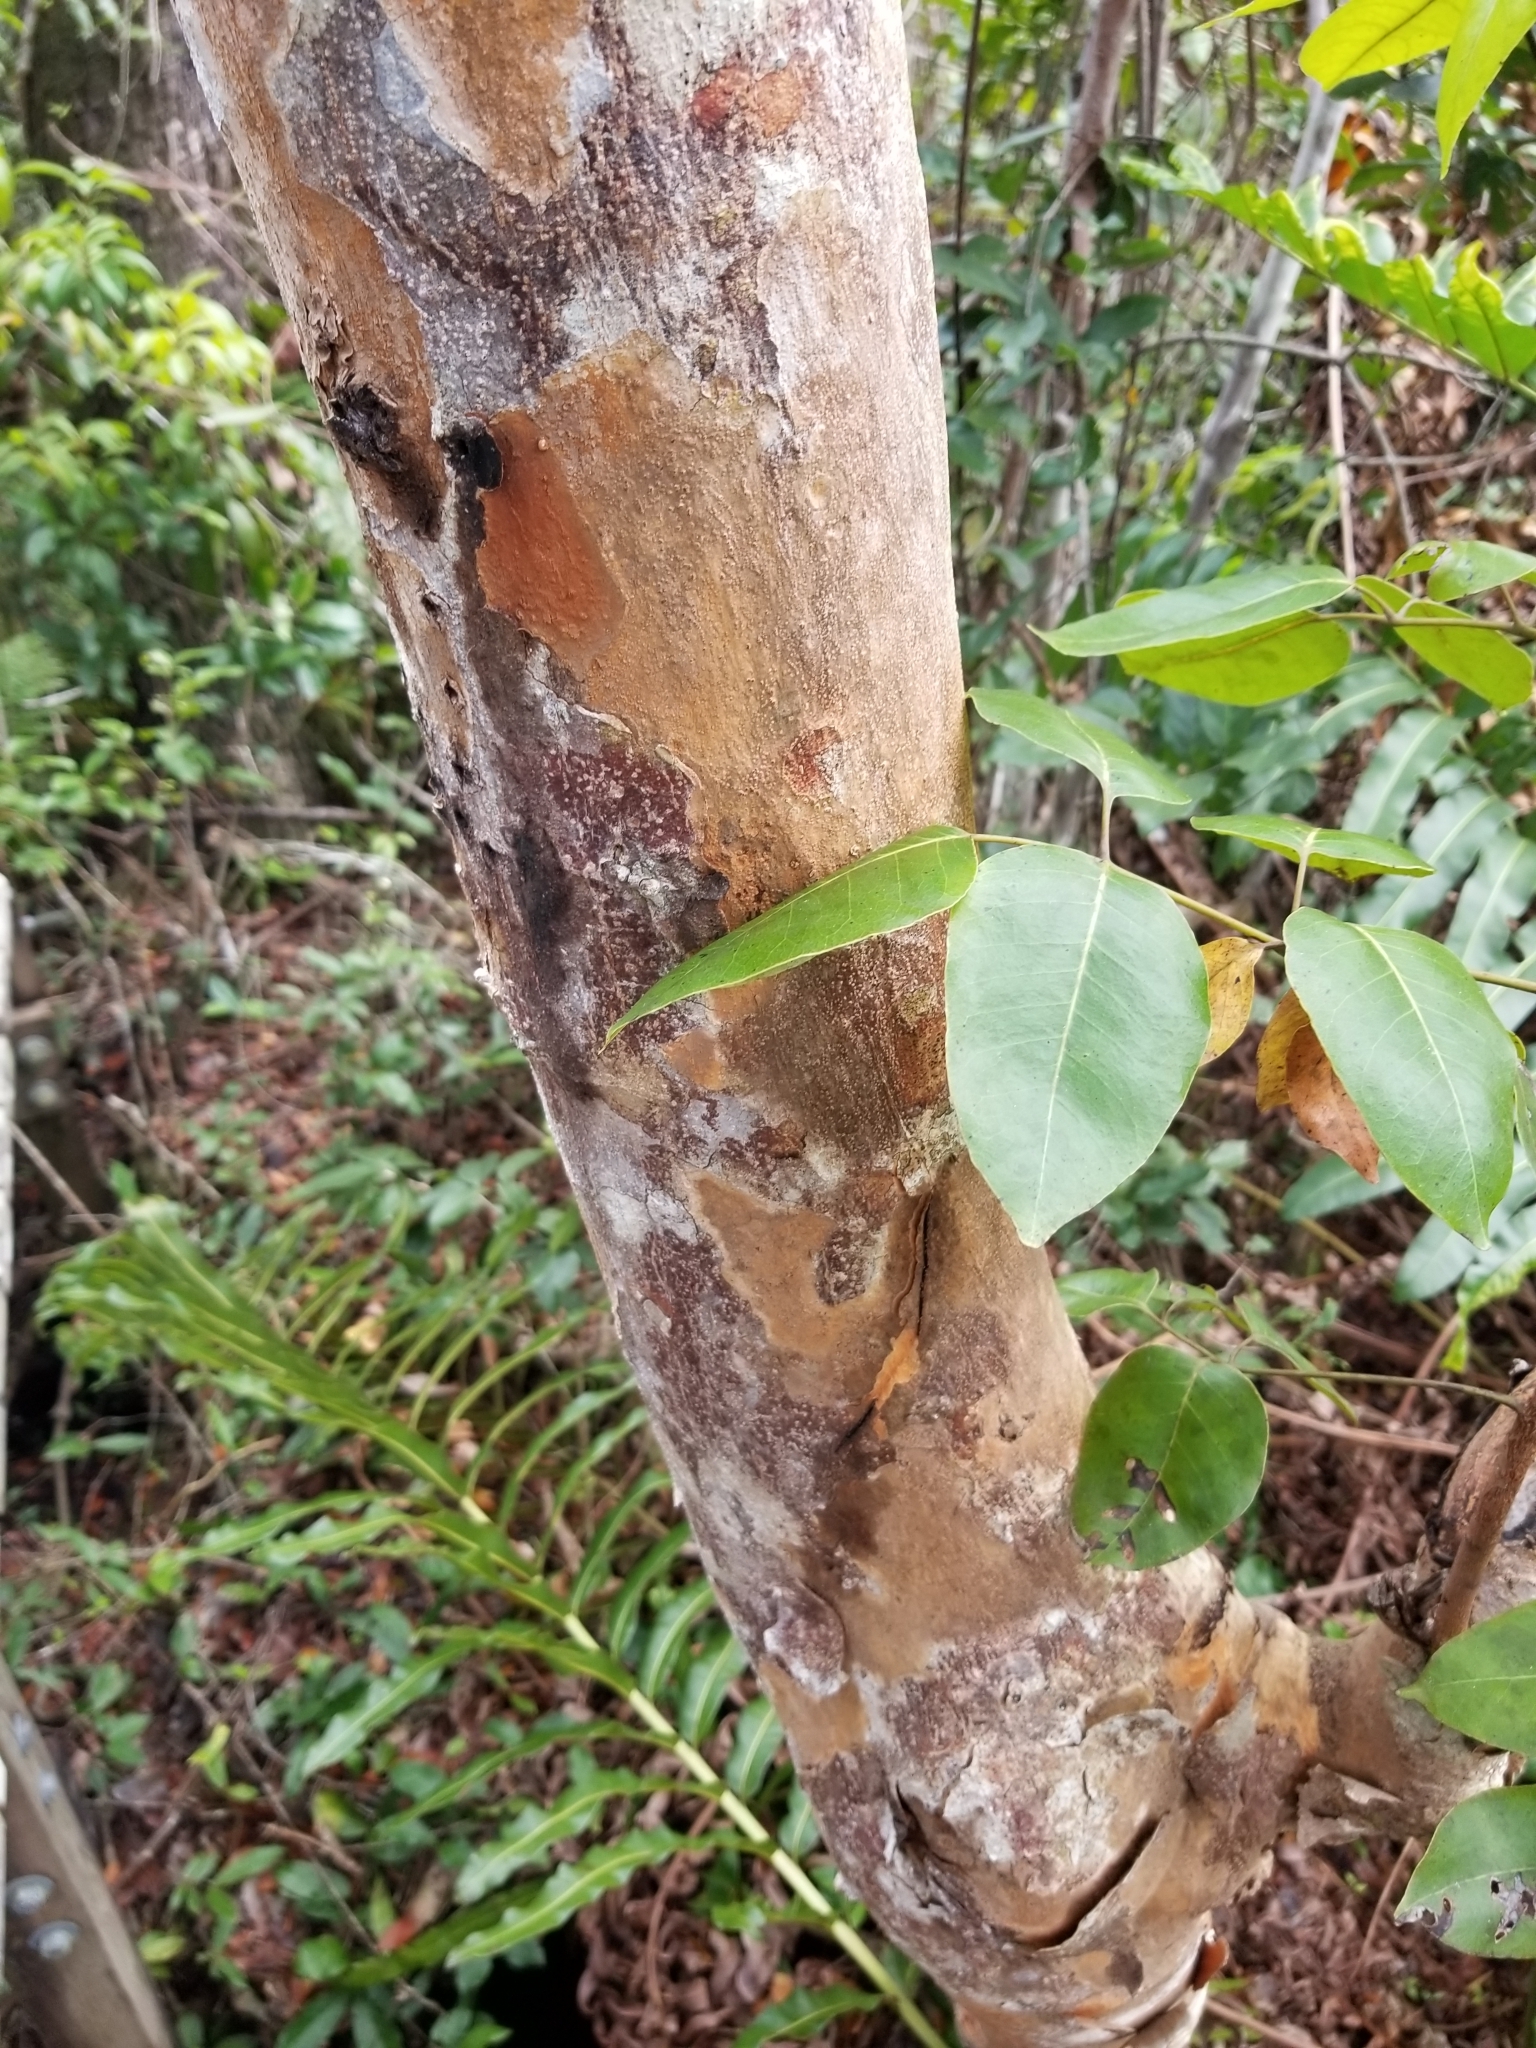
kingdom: Plantae
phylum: Tracheophyta
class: Magnoliopsida
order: Sapindales
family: Anacardiaceae
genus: Metopium
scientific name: Metopium toxiferum
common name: Florida poisontree
